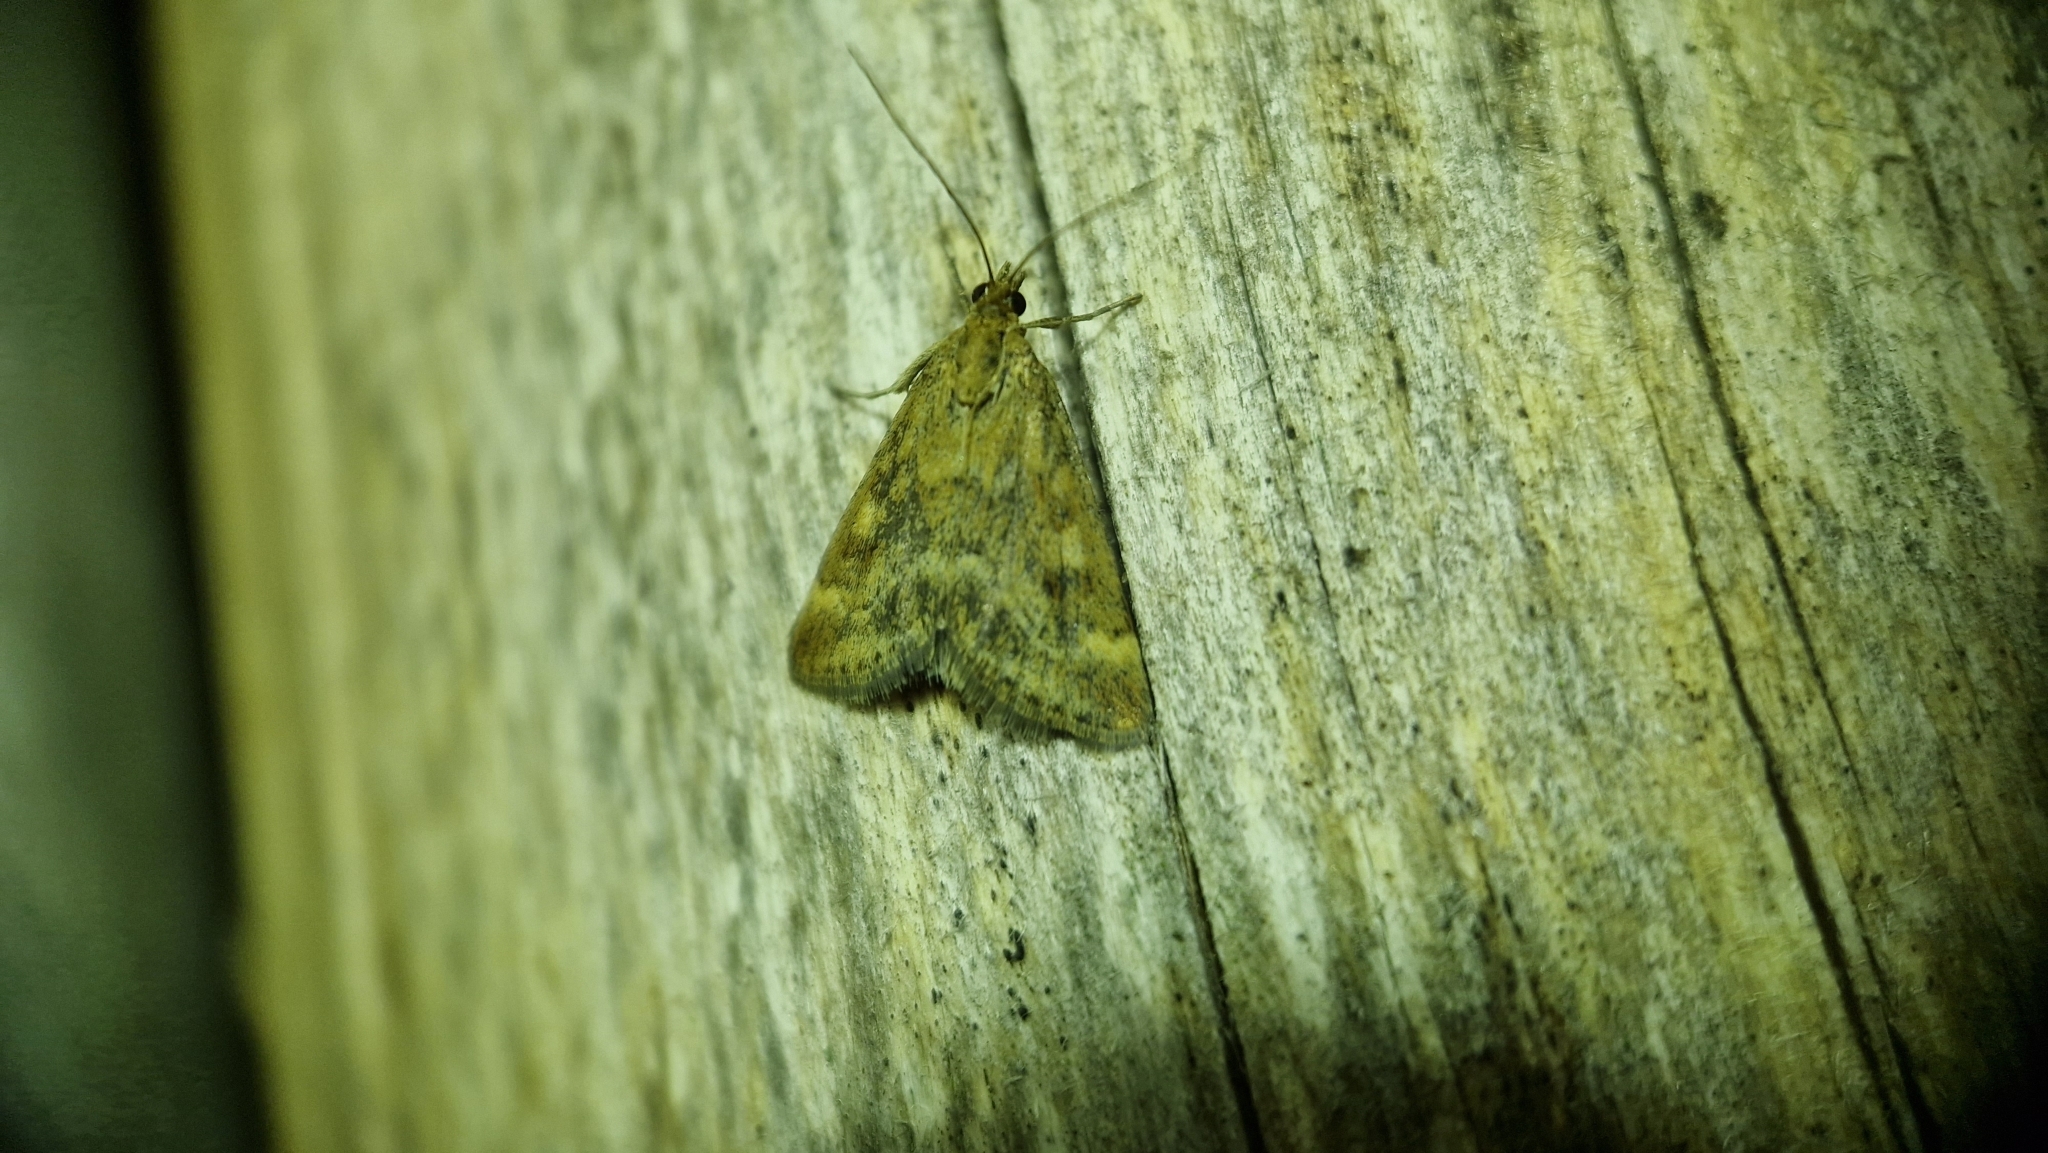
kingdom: Animalia
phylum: Arthropoda
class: Insecta
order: Lepidoptera
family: Crambidae
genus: Pyrausta
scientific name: Pyrausta despicata
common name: Straw-barred pearl
